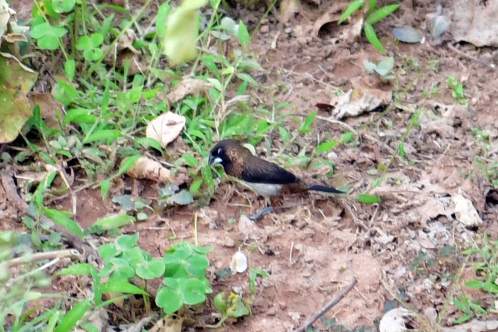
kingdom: Animalia
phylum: Chordata
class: Aves
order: Passeriformes
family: Estrildidae
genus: Lonchura
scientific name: Lonchura striata
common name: White-rumped munia
